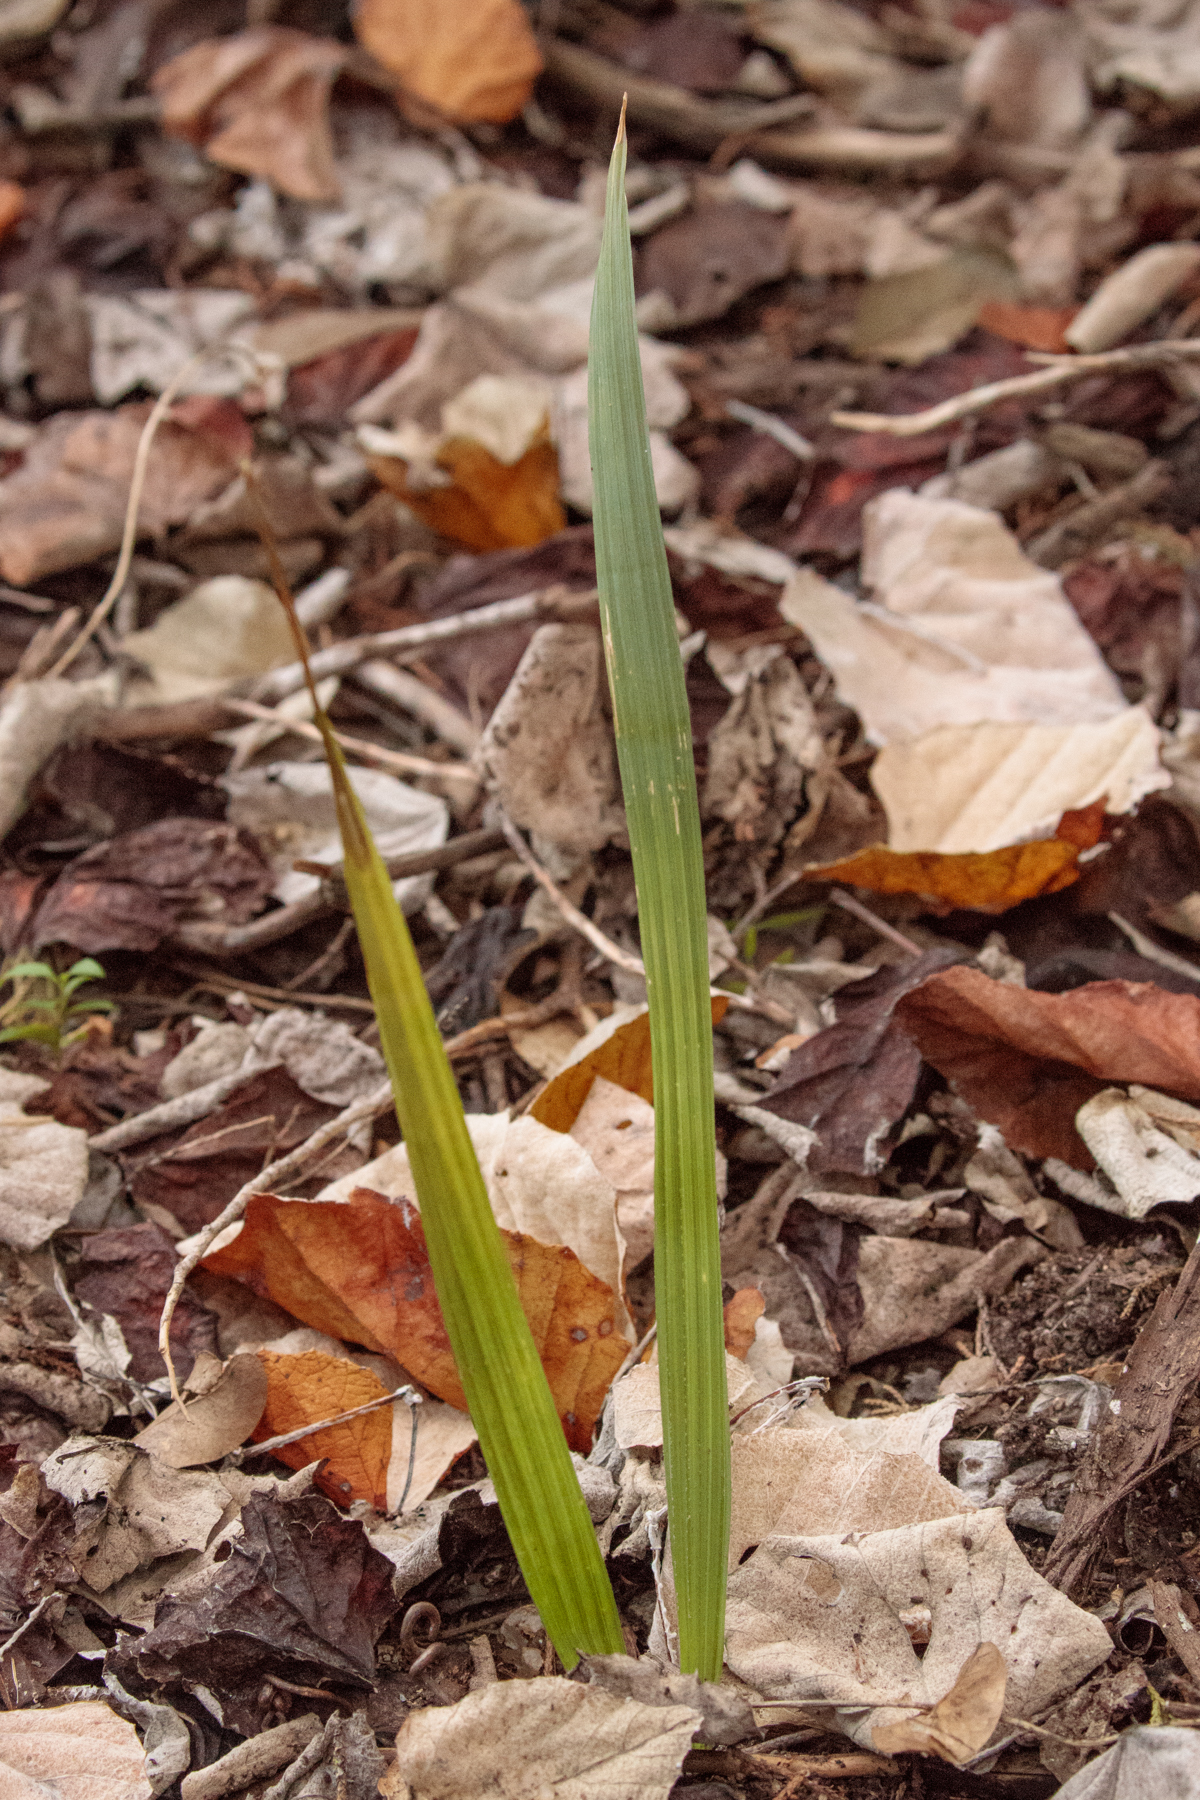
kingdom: Plantae
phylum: Tracheophyta
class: Liliopsida
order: Arecales
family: Arecaceae
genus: Sabal
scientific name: Sabal minor
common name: Dwarf palmetto
